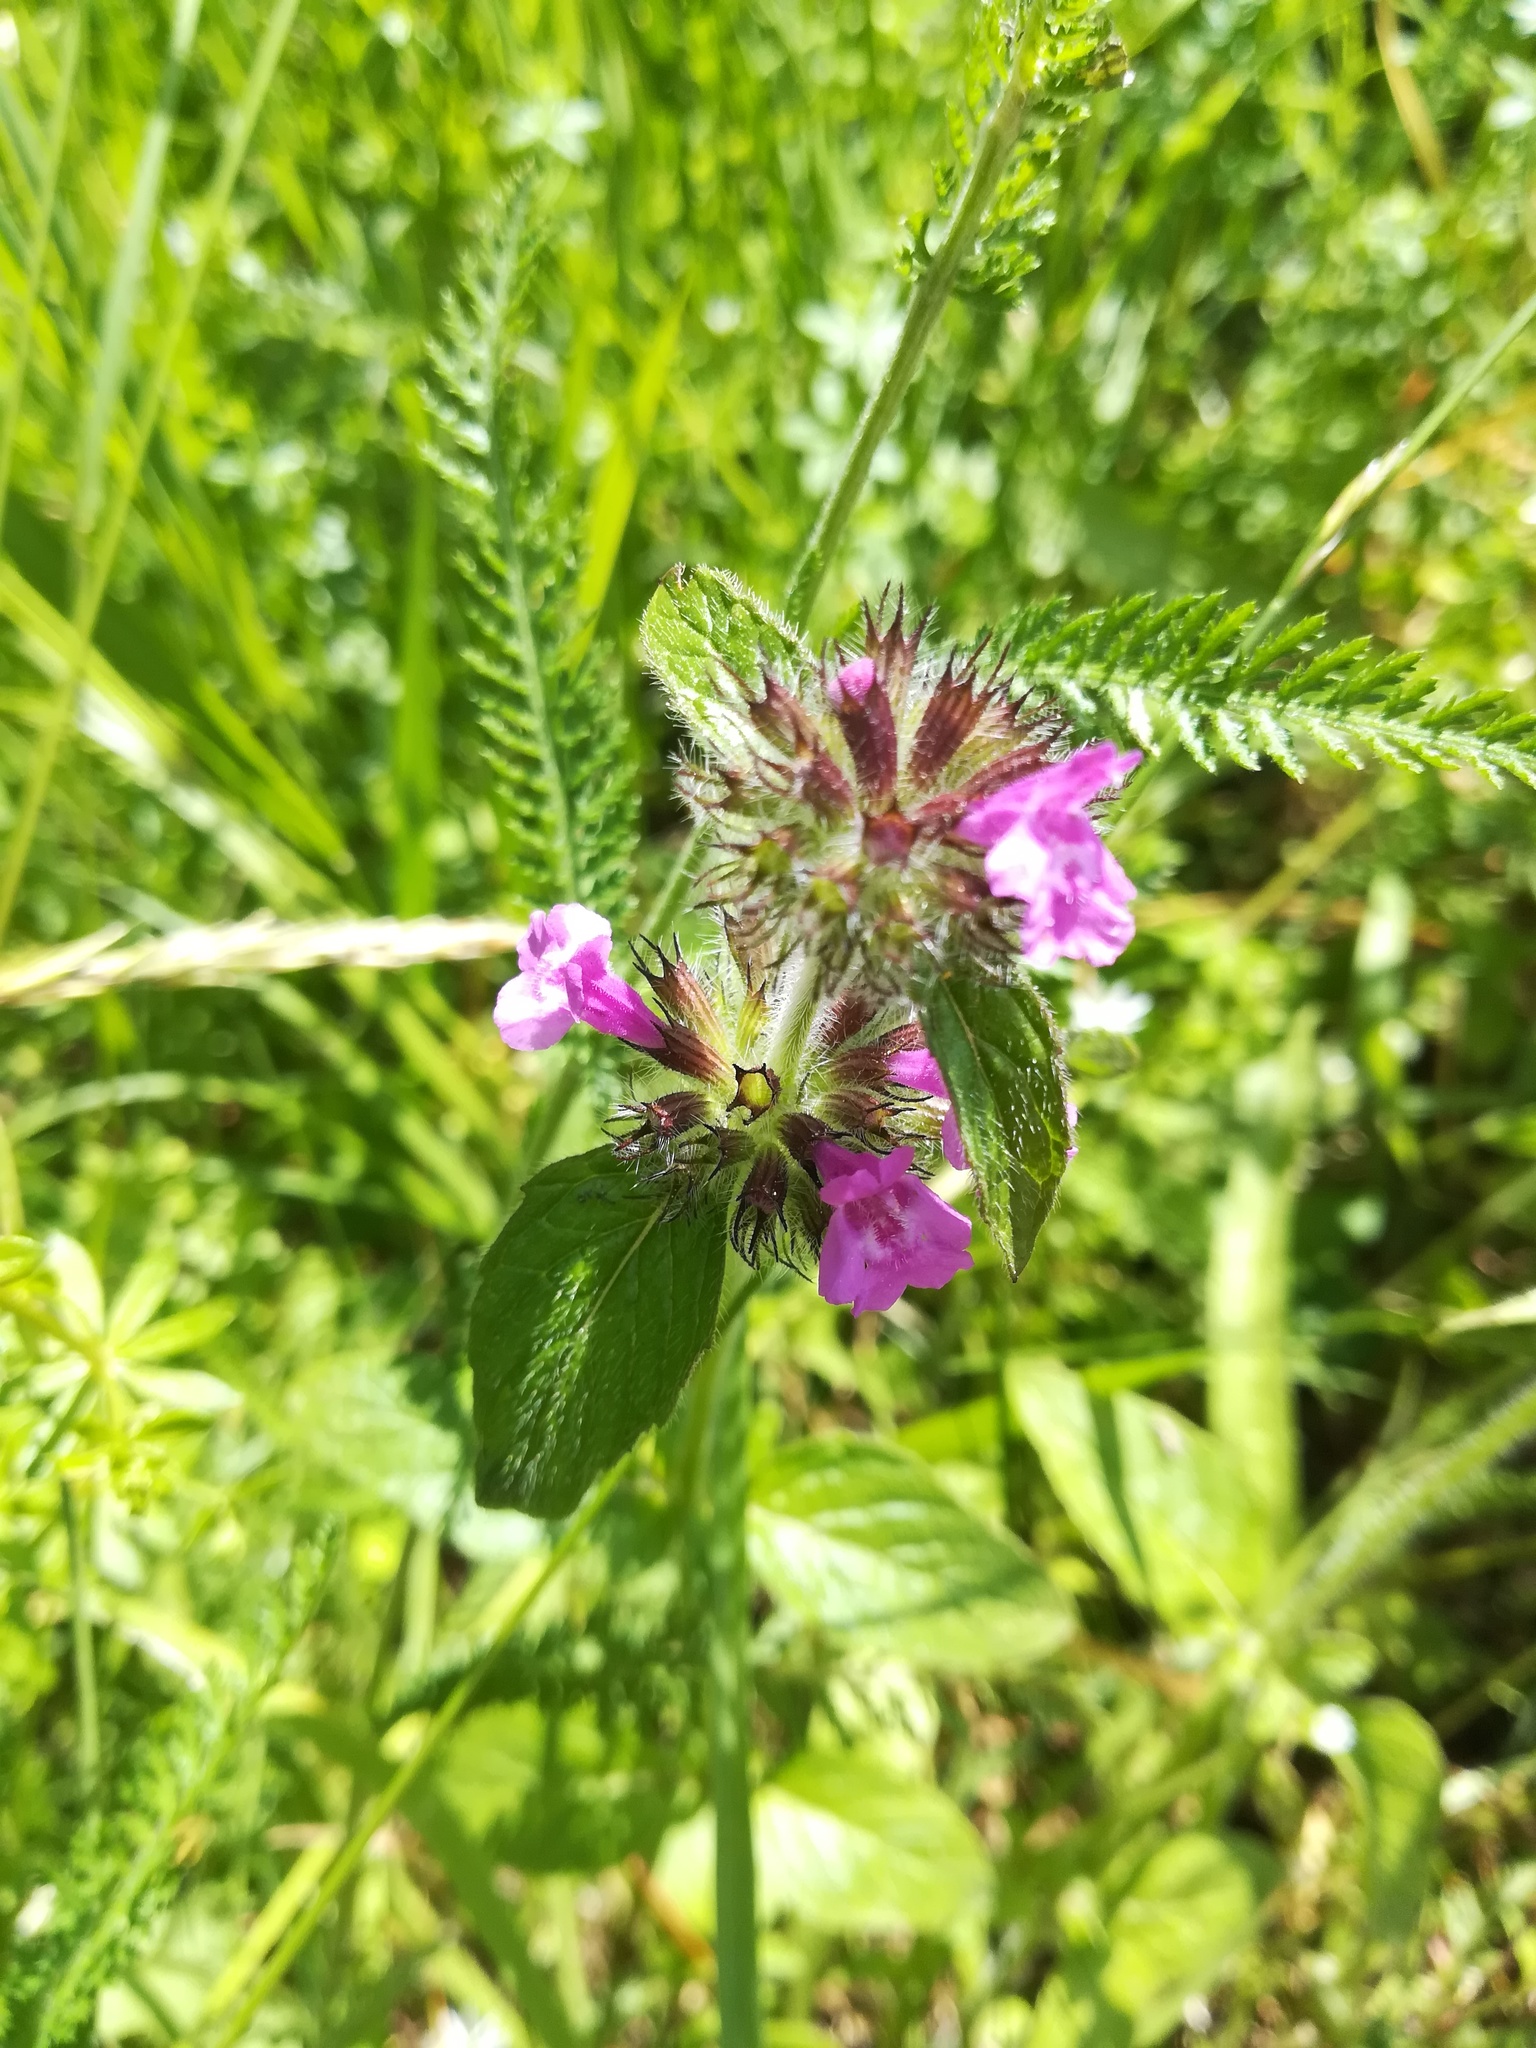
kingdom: Plantae
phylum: Tracheophyta
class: Magnoliopsida
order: Lamiales
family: Lamiaceae
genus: Clinopodium
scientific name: Clinopodium vulgare
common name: Wild basil
